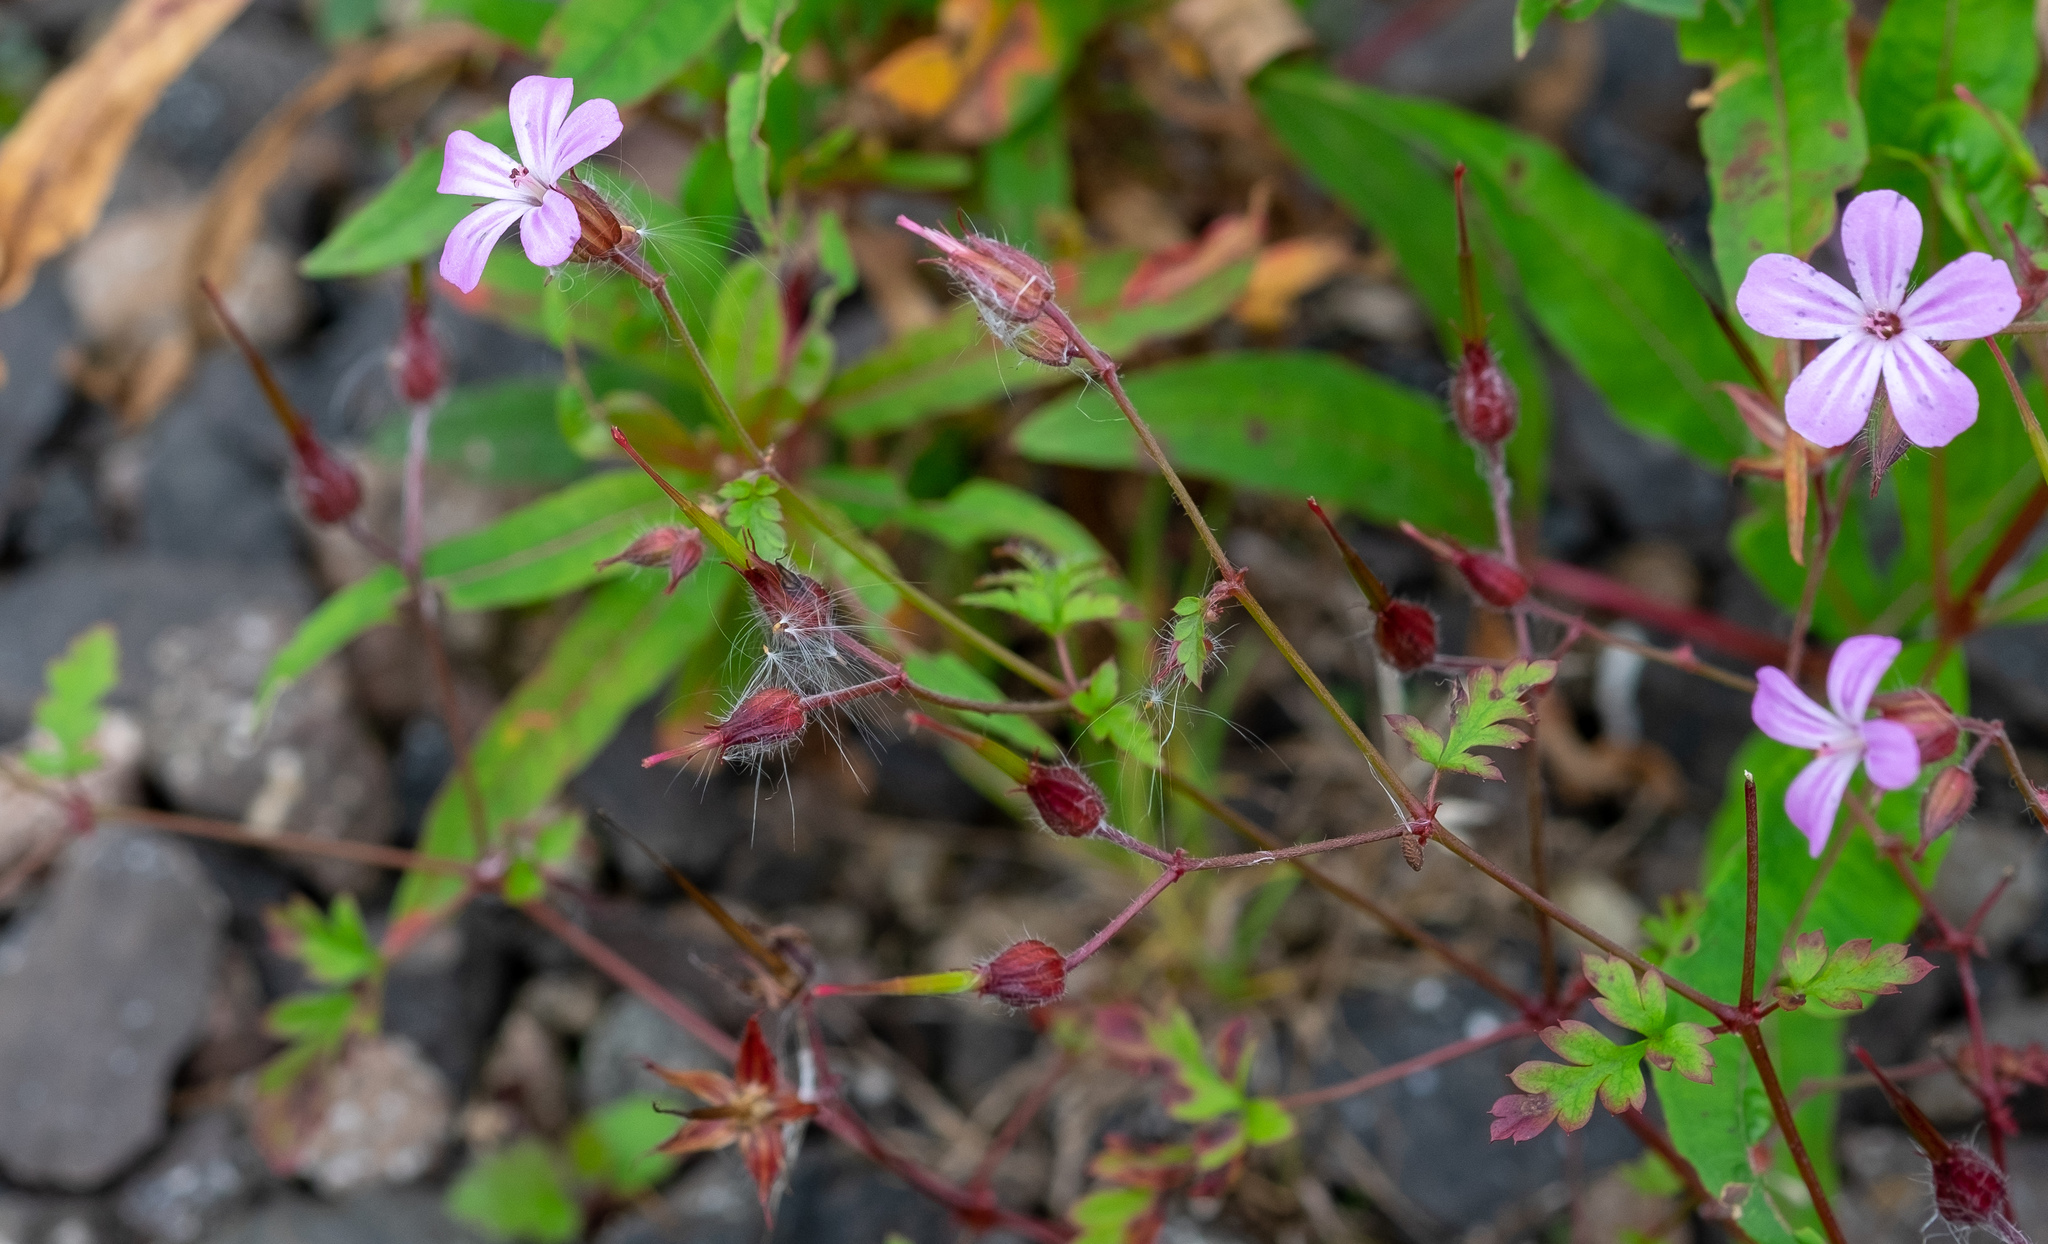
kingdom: Plantae
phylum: Tracheophyta
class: Magnoliopsida
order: Geraniales
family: Geraniaceae
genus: Geranium
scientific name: Geranium robertianum
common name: Herb-robert
